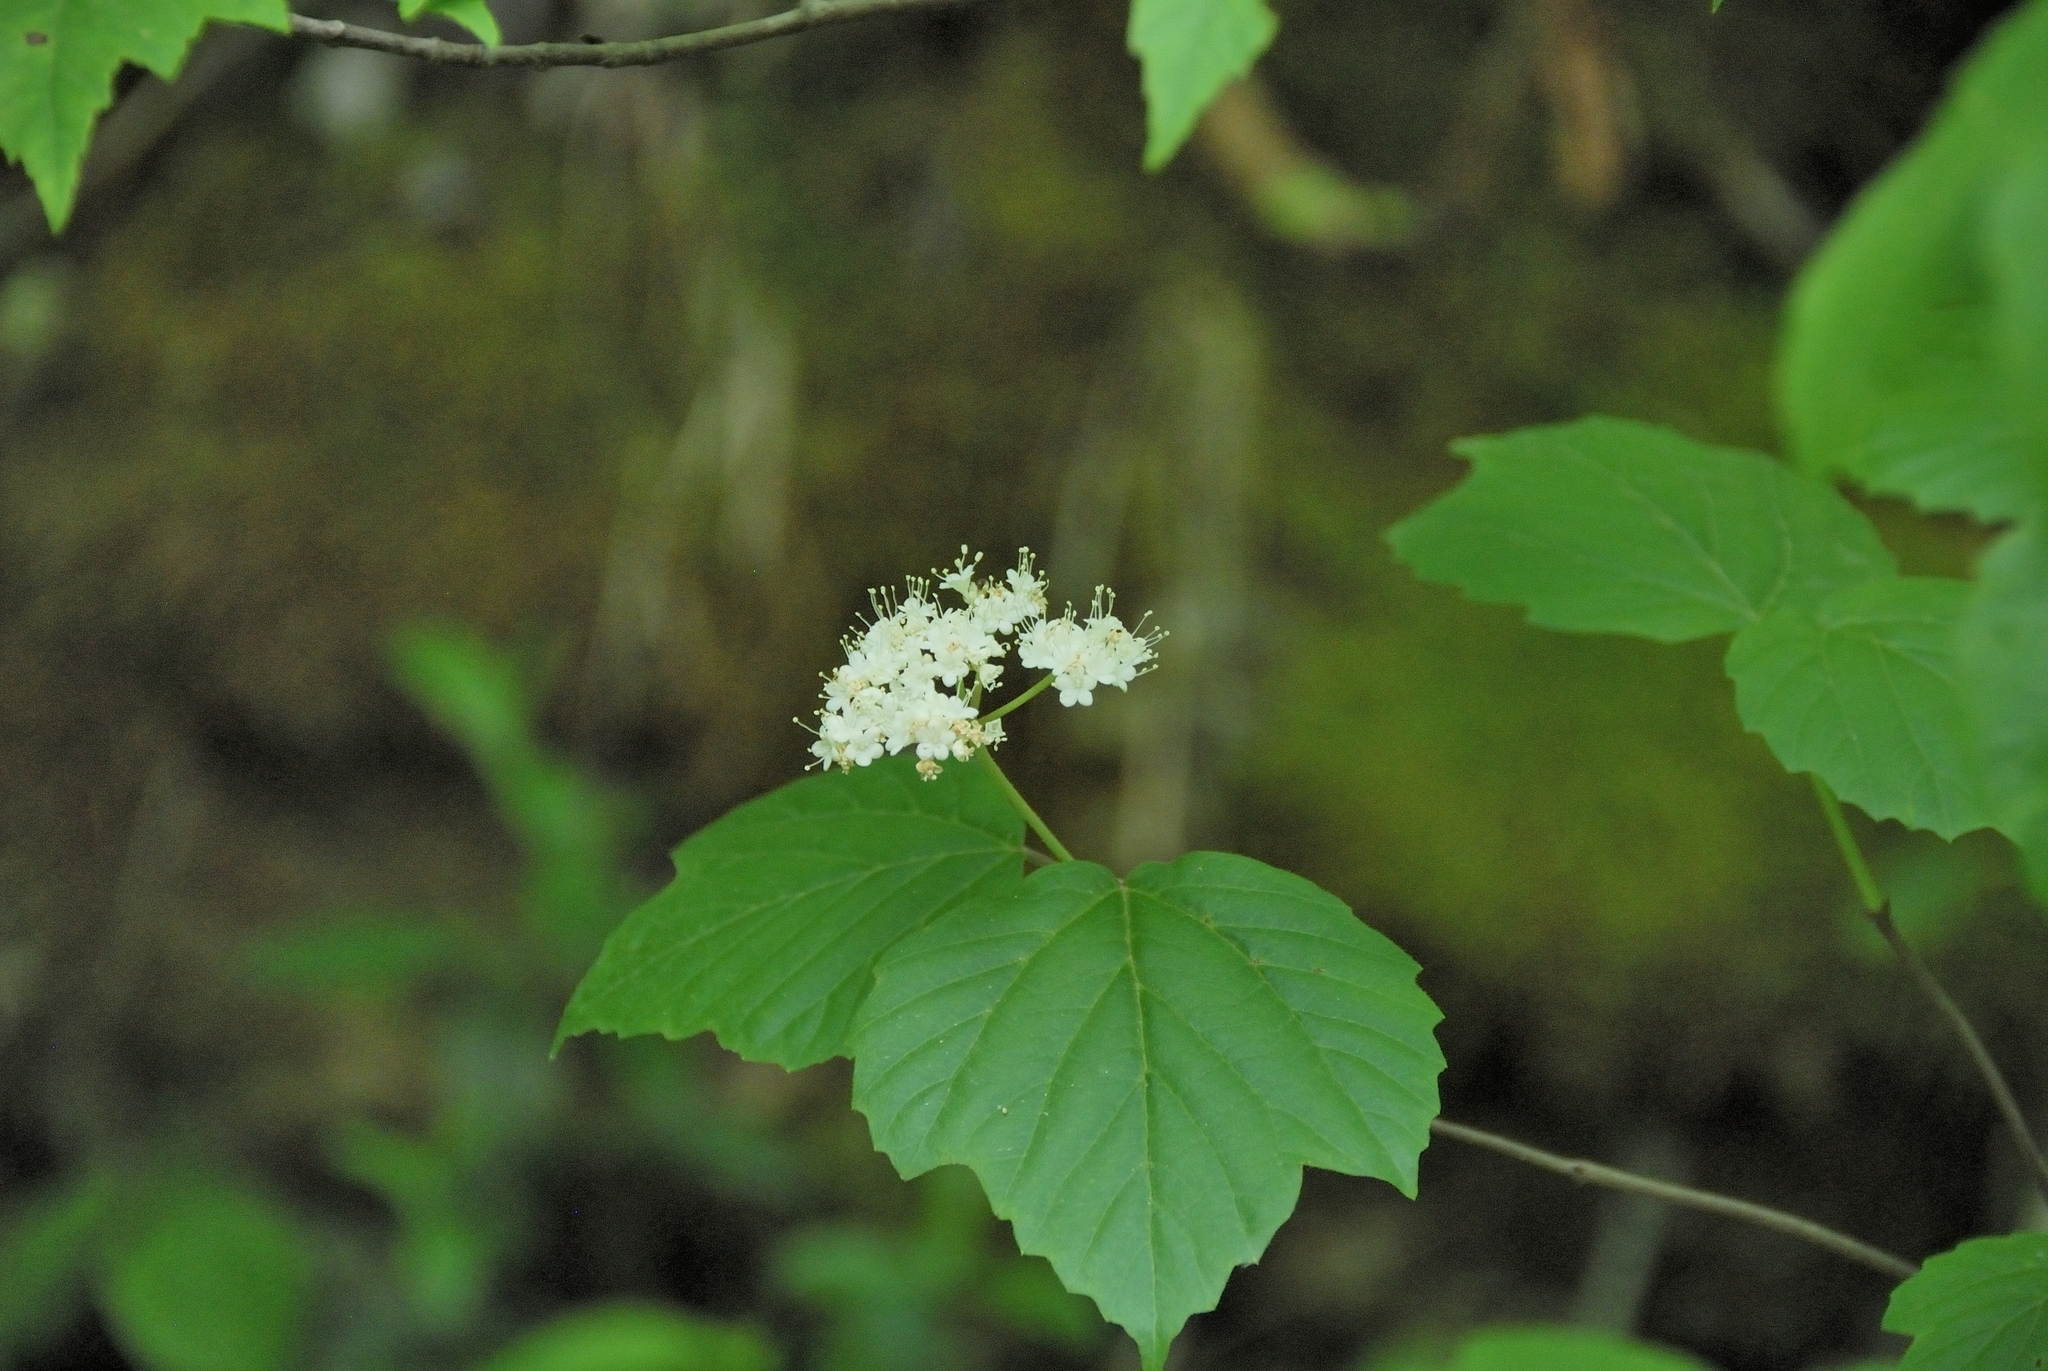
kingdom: Plantae
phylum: Tracheophyta
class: Magnoliopsida
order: Dipsacales
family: Viburnaceae
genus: Viburnum
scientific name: Viburnum acerifolium
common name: Dockmackie
